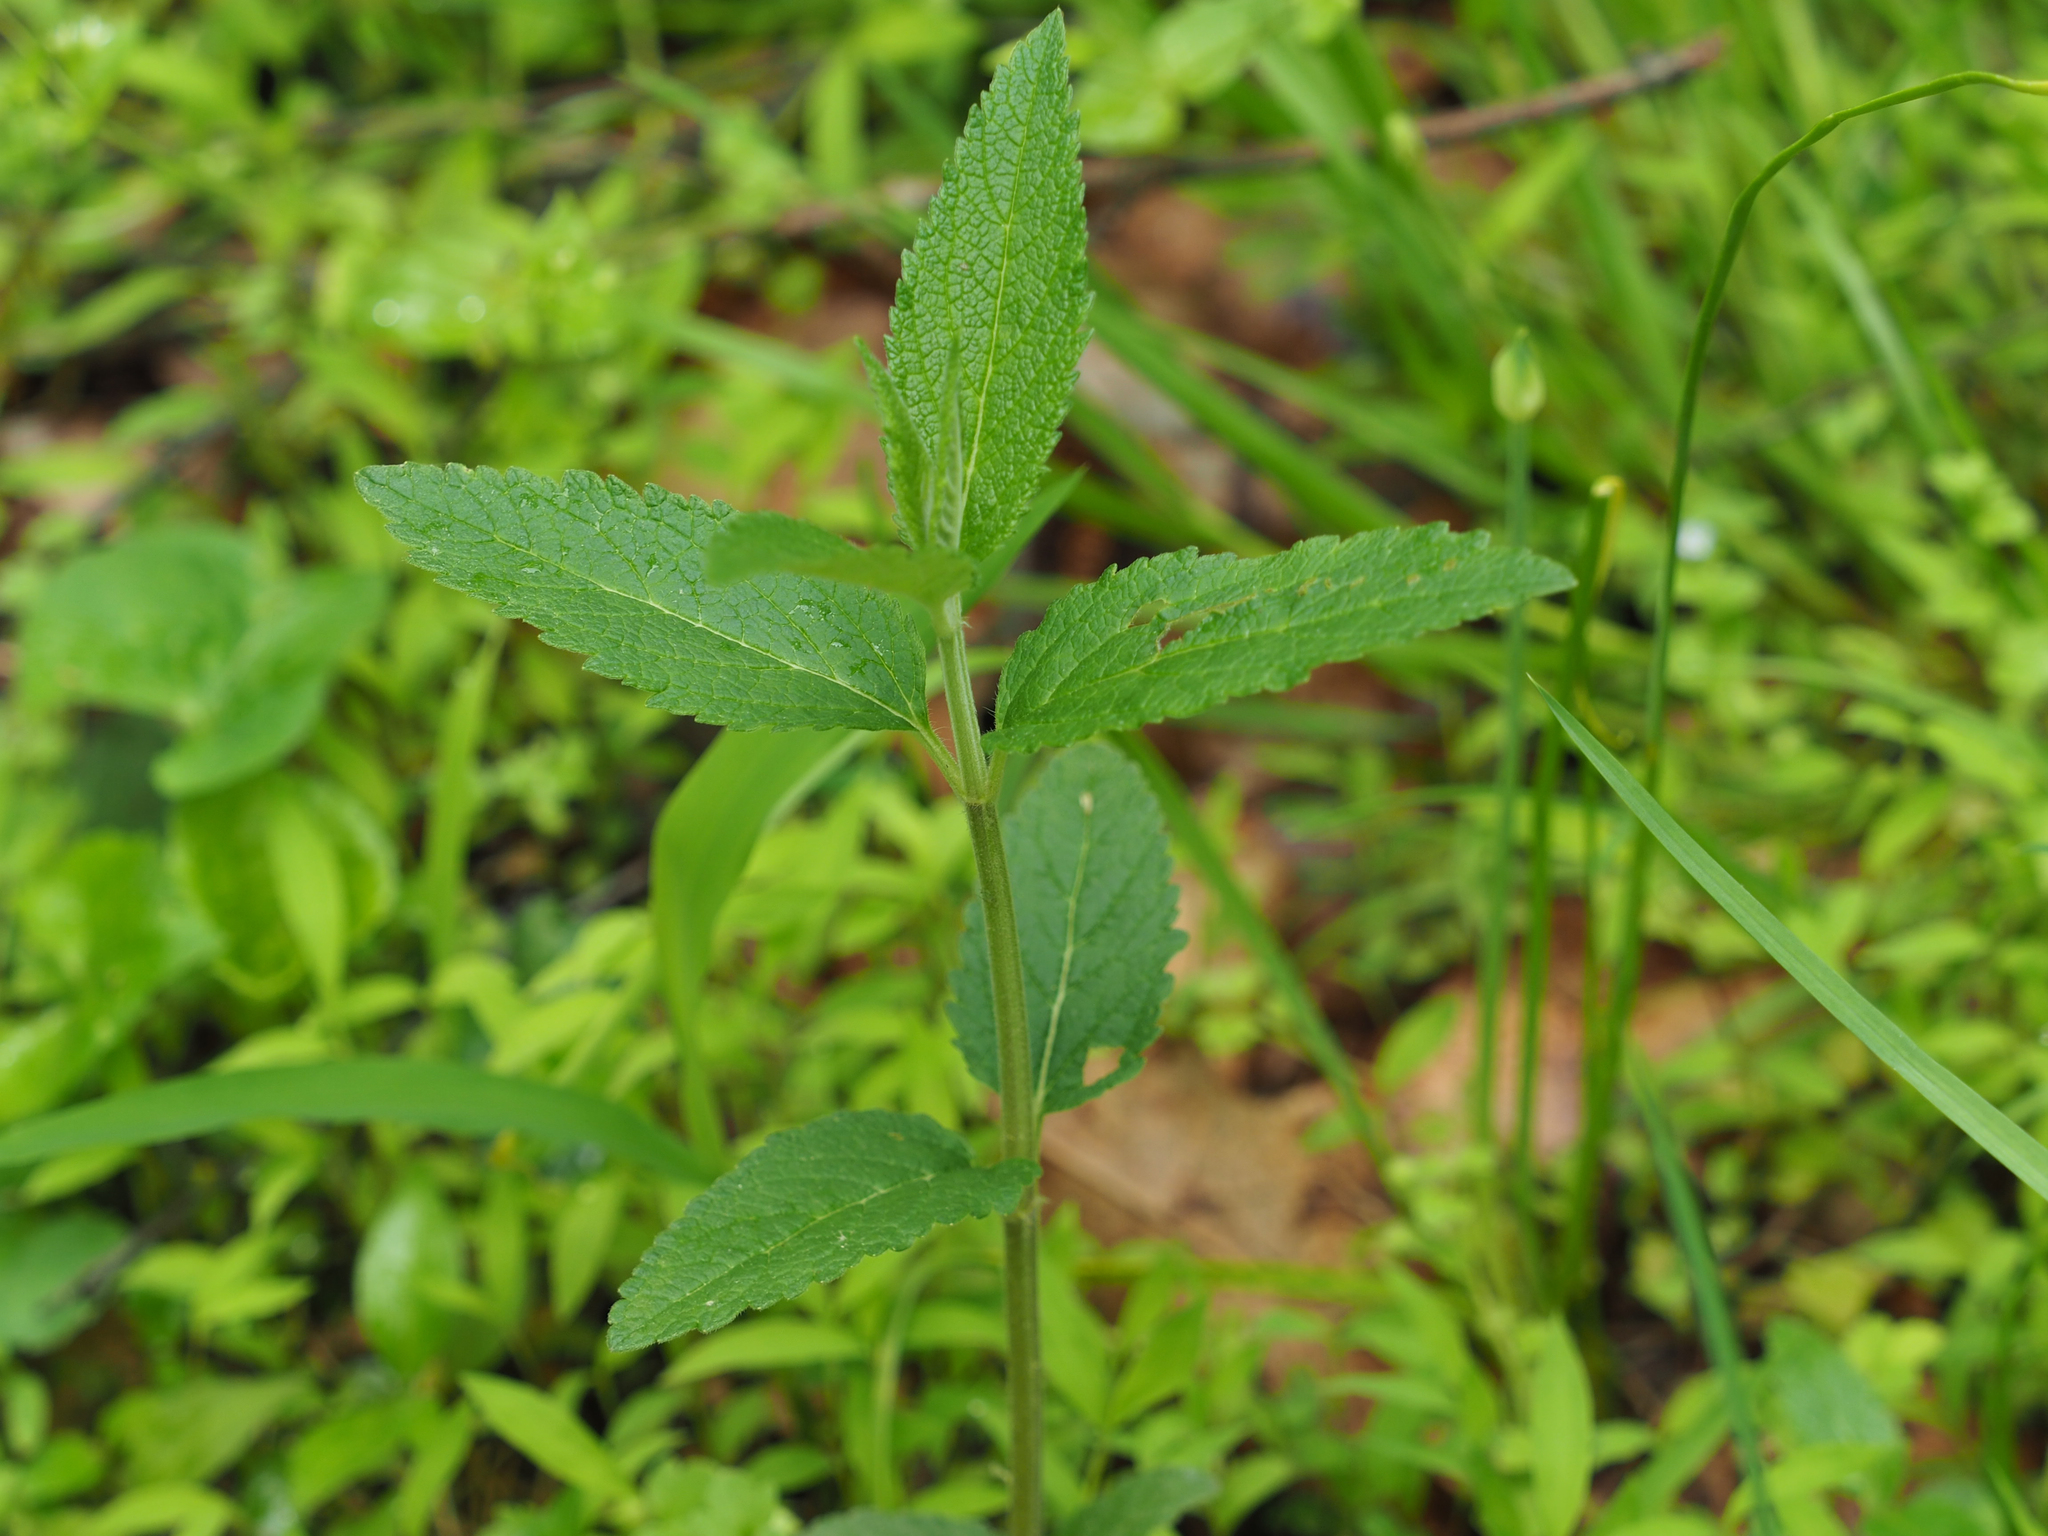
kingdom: Plantae
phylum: Tracheophyta
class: Magnoliopsida
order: Lamiales
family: Lamiaceae
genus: Teucrium
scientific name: Teucrium canadense
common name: American germander
